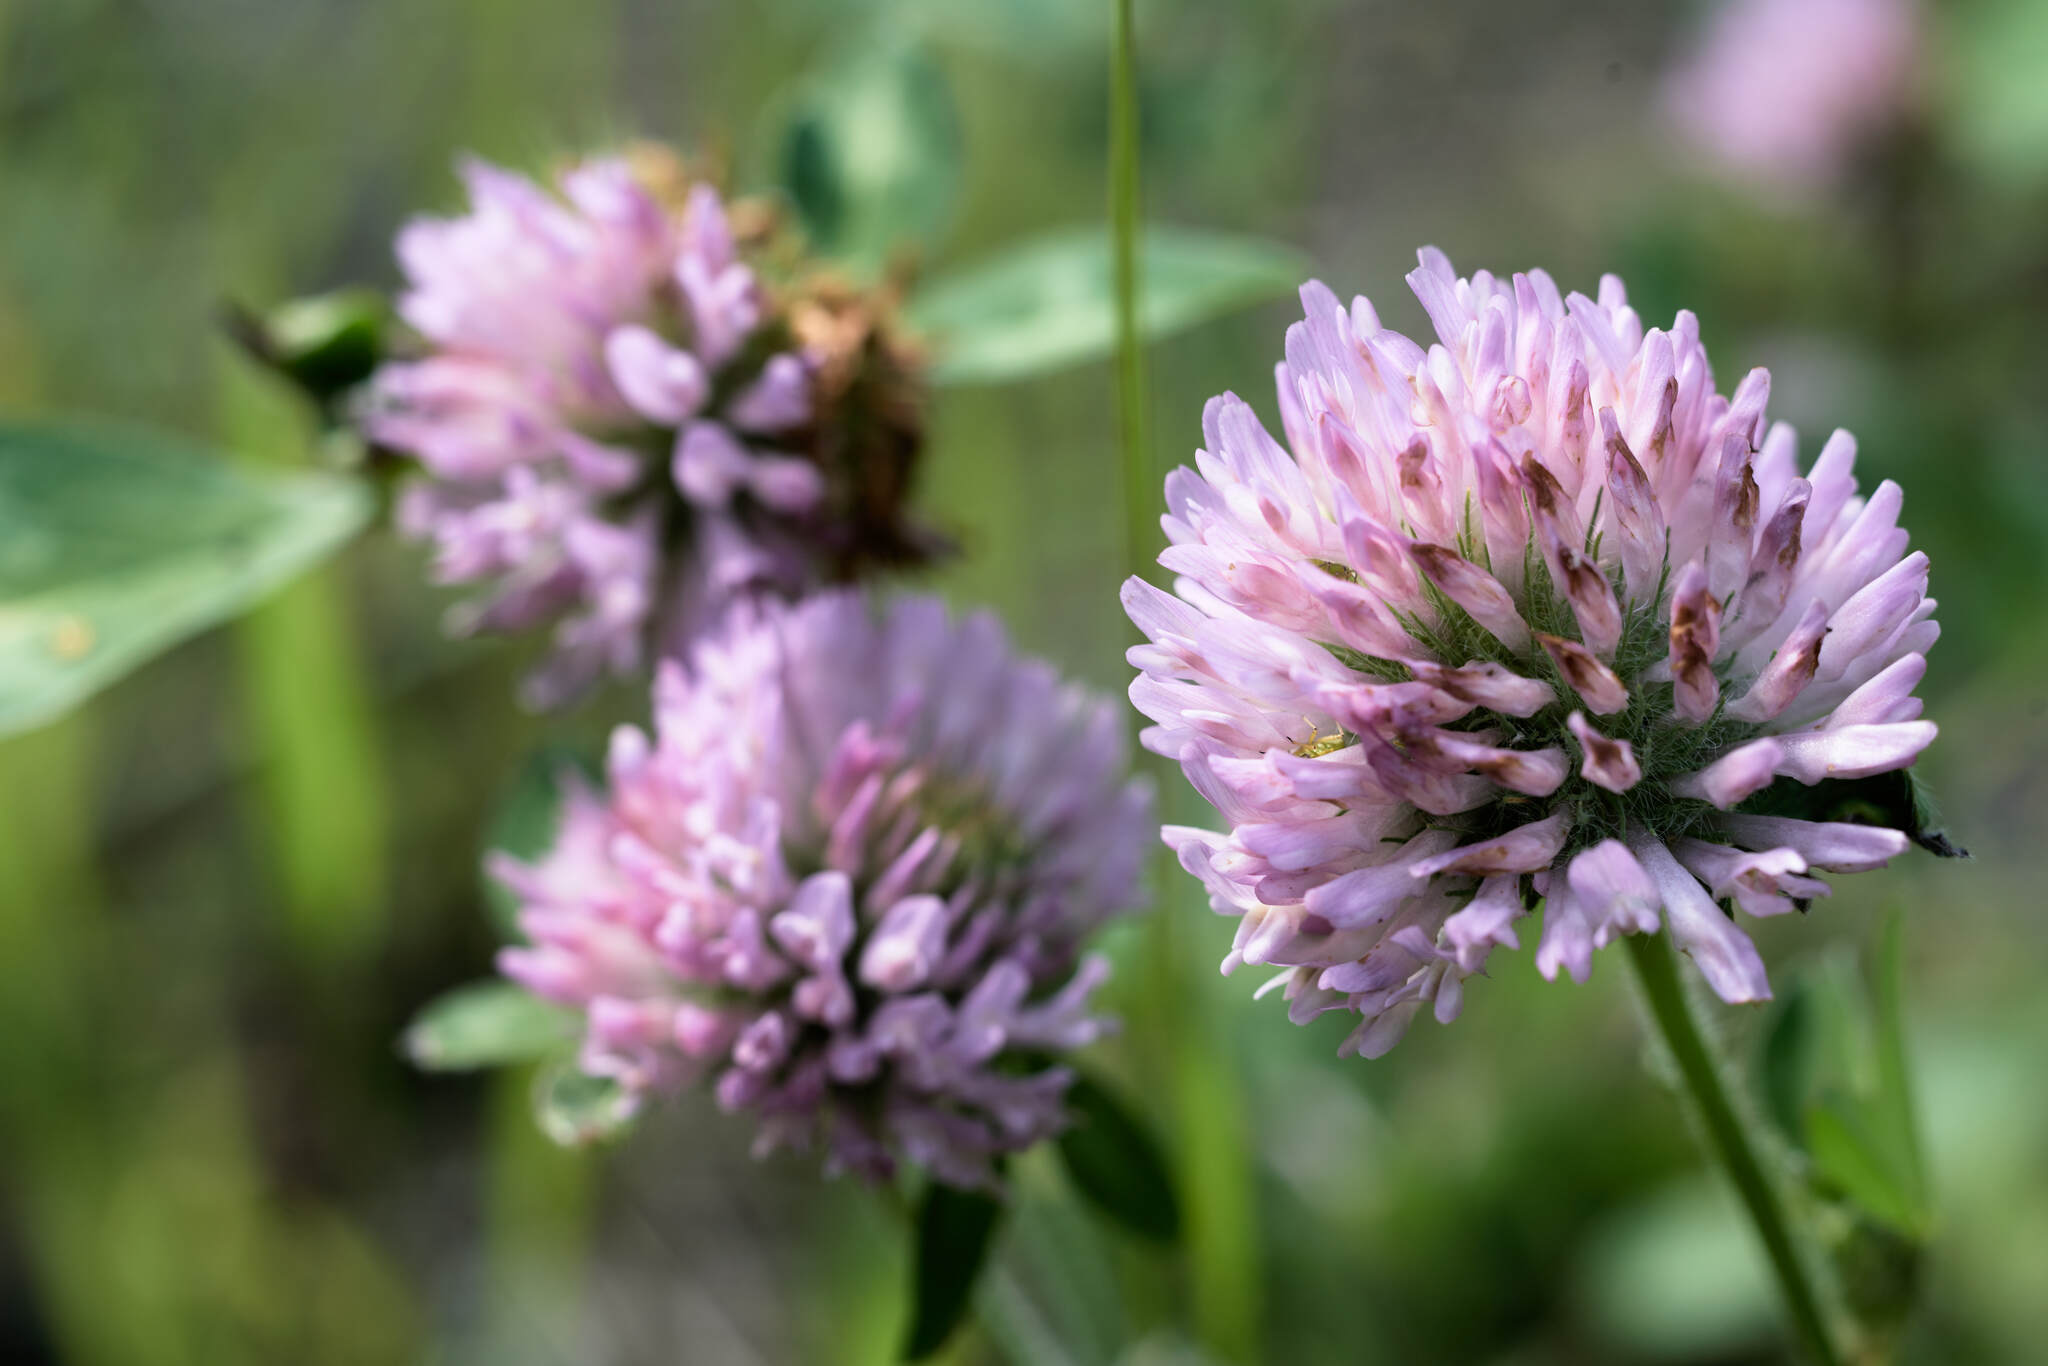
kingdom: Plantae
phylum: Tracheophyta
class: Magnoliopsida
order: Fabales
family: Fabaceae
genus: Trifolium
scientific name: Trifolium pratense
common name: Red clover
